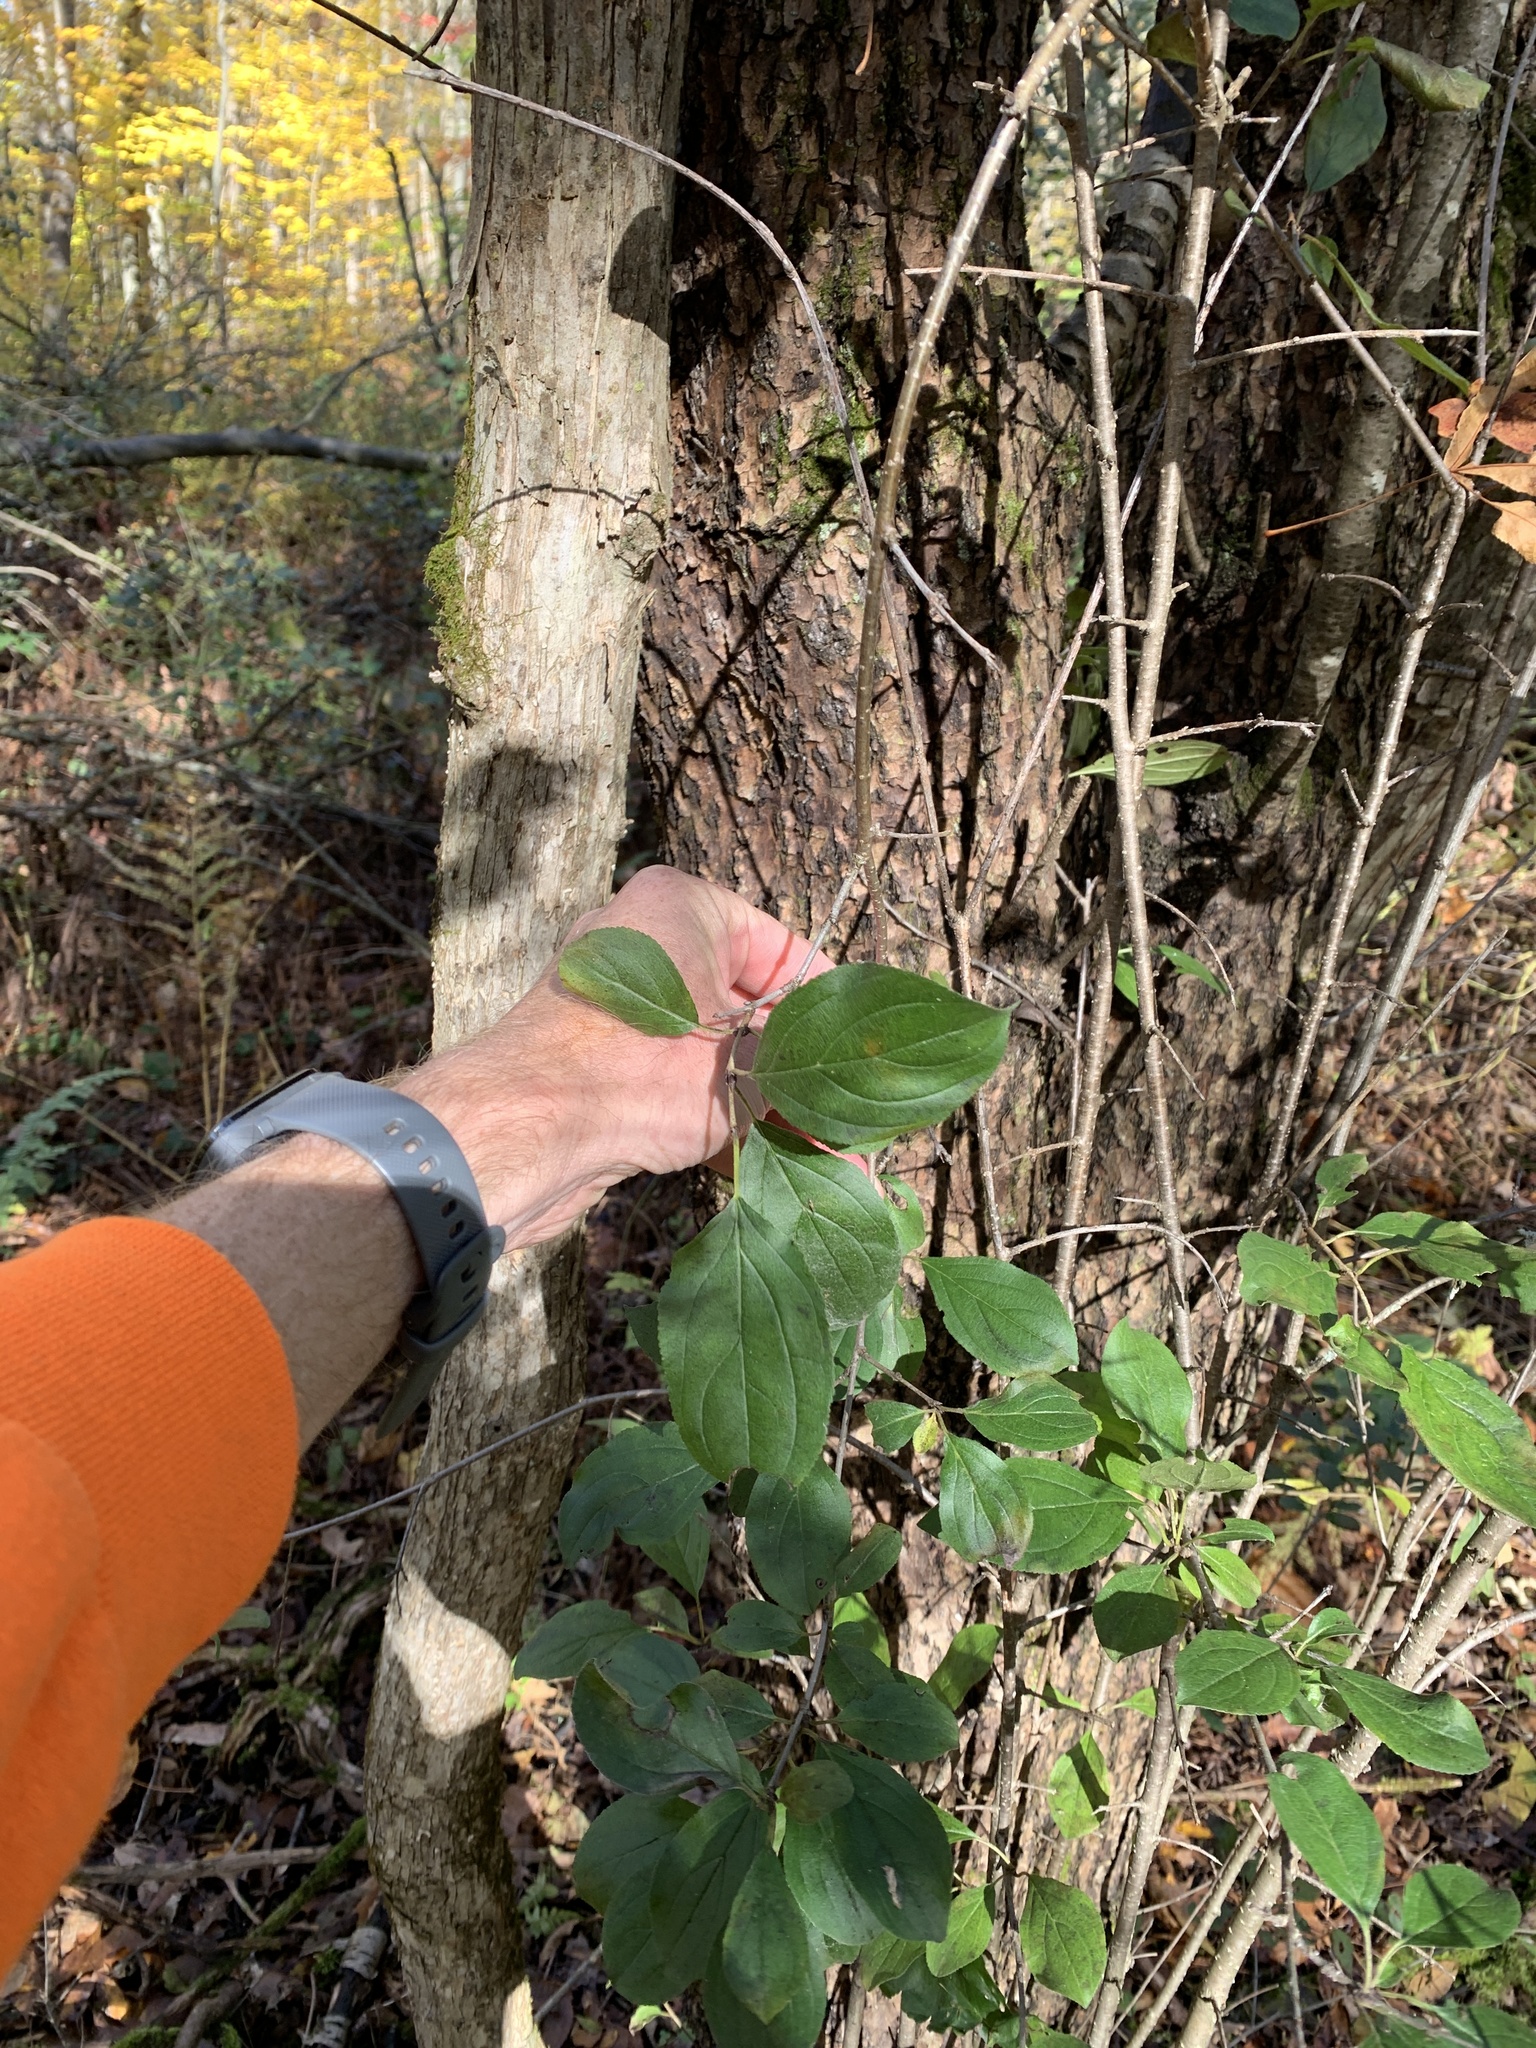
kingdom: Plantae
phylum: Tracheophyta
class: Magnoliopsida
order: Rosales
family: Rhamnaceae
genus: Rhamnus
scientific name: Rhamnus cathartica
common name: Common buckthorn
